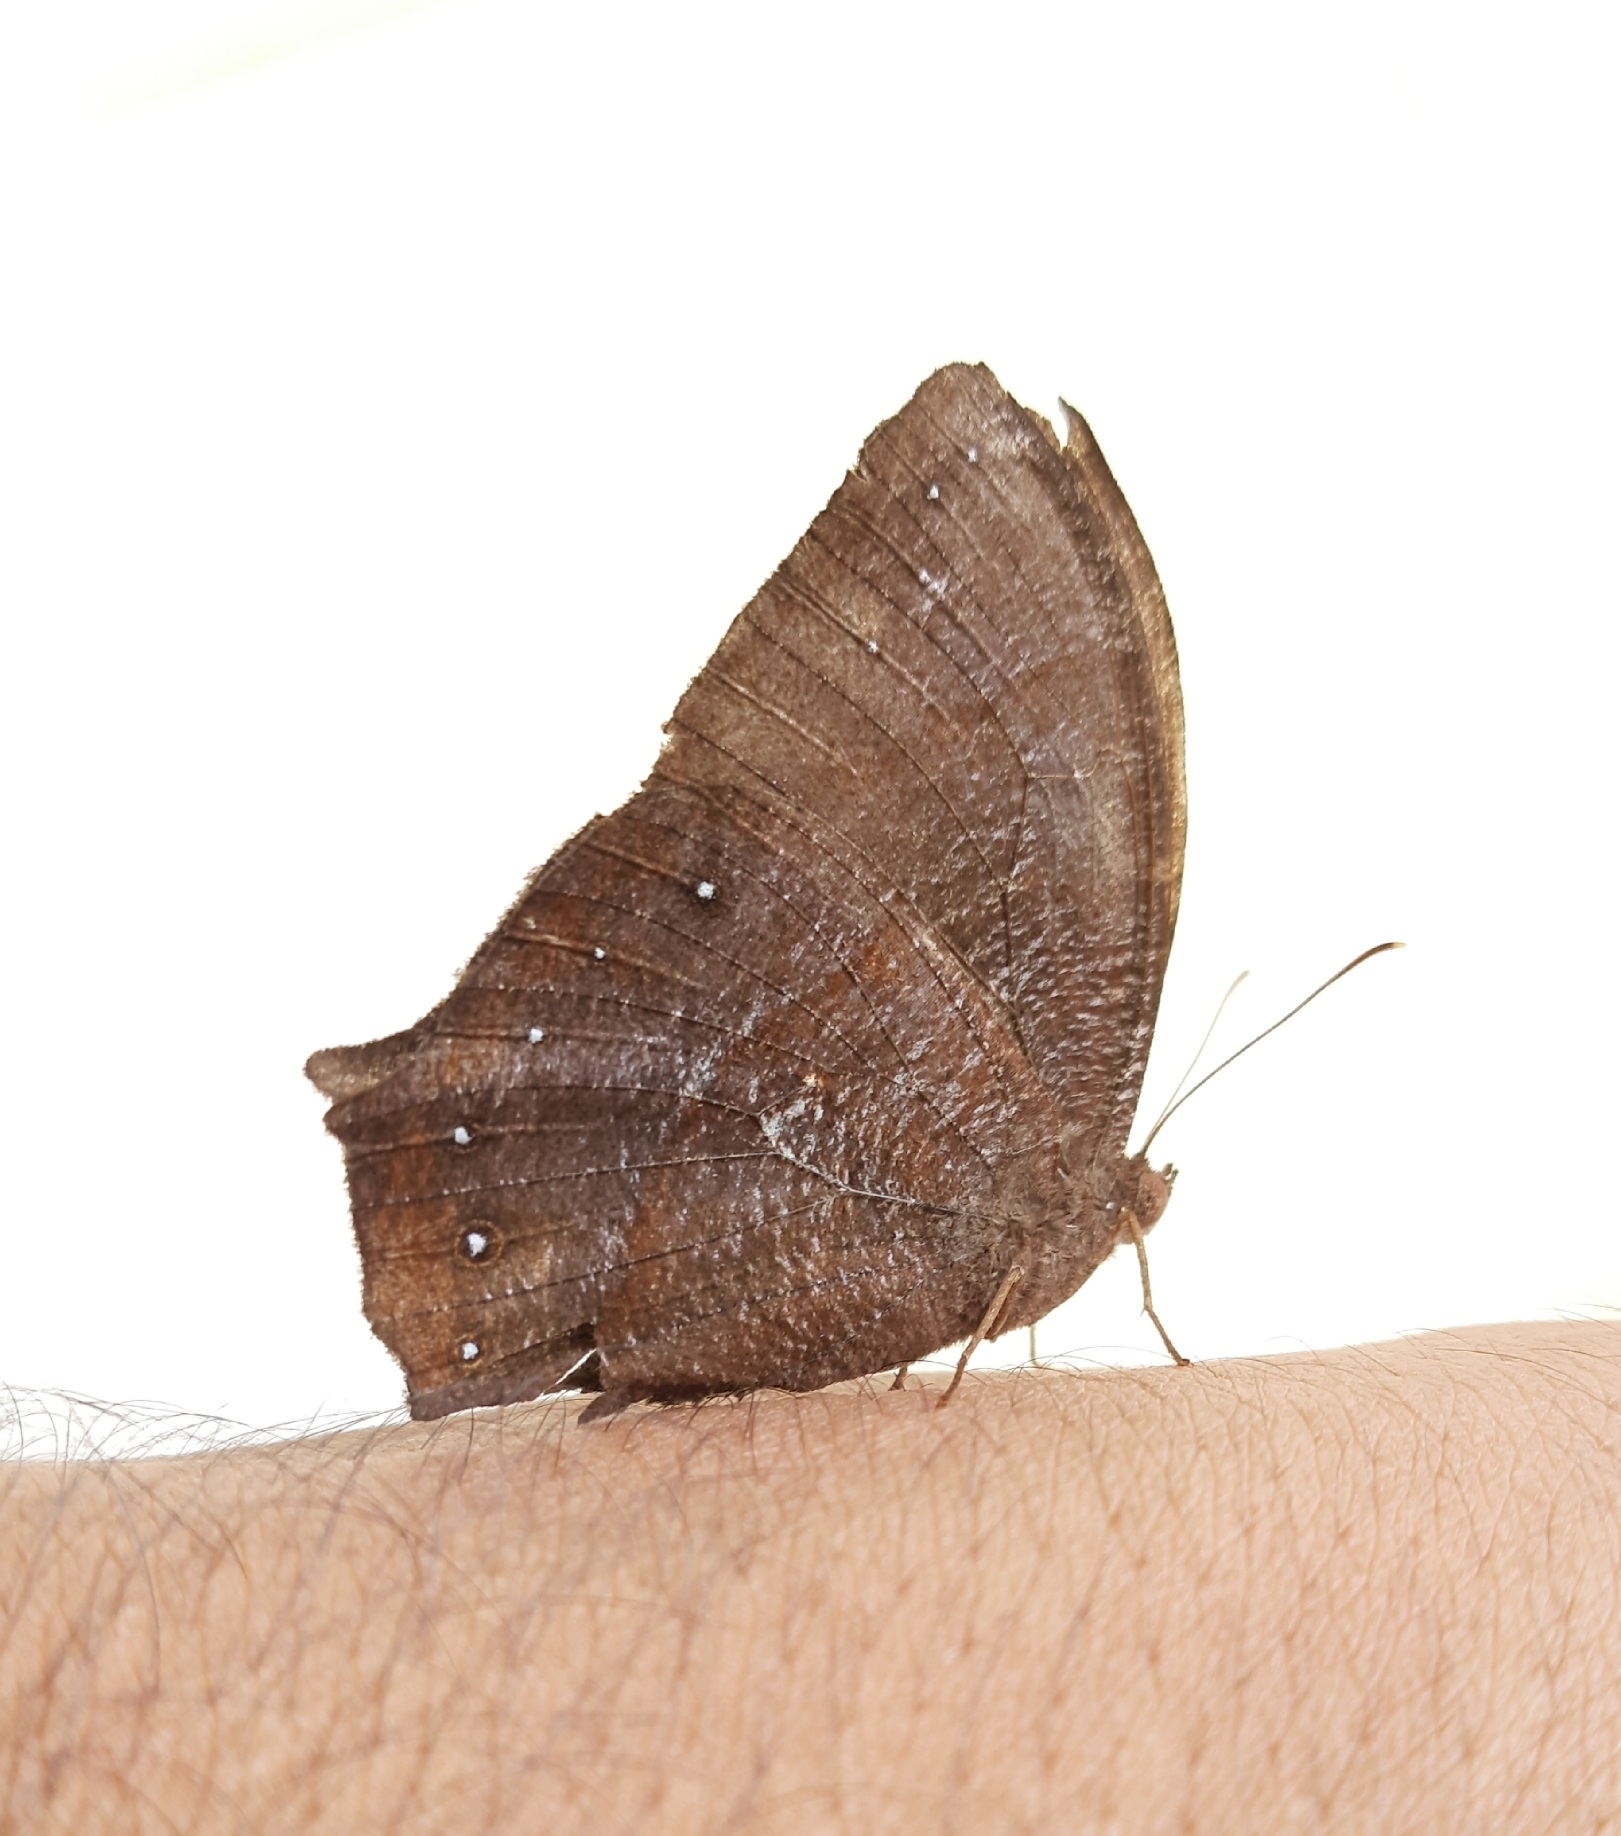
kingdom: Animalia
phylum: Arthropoda
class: Insecta
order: Lepidoptera
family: Nymphalidae
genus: Melanitis
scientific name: Melanitis phedima
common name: Dark evening brown
